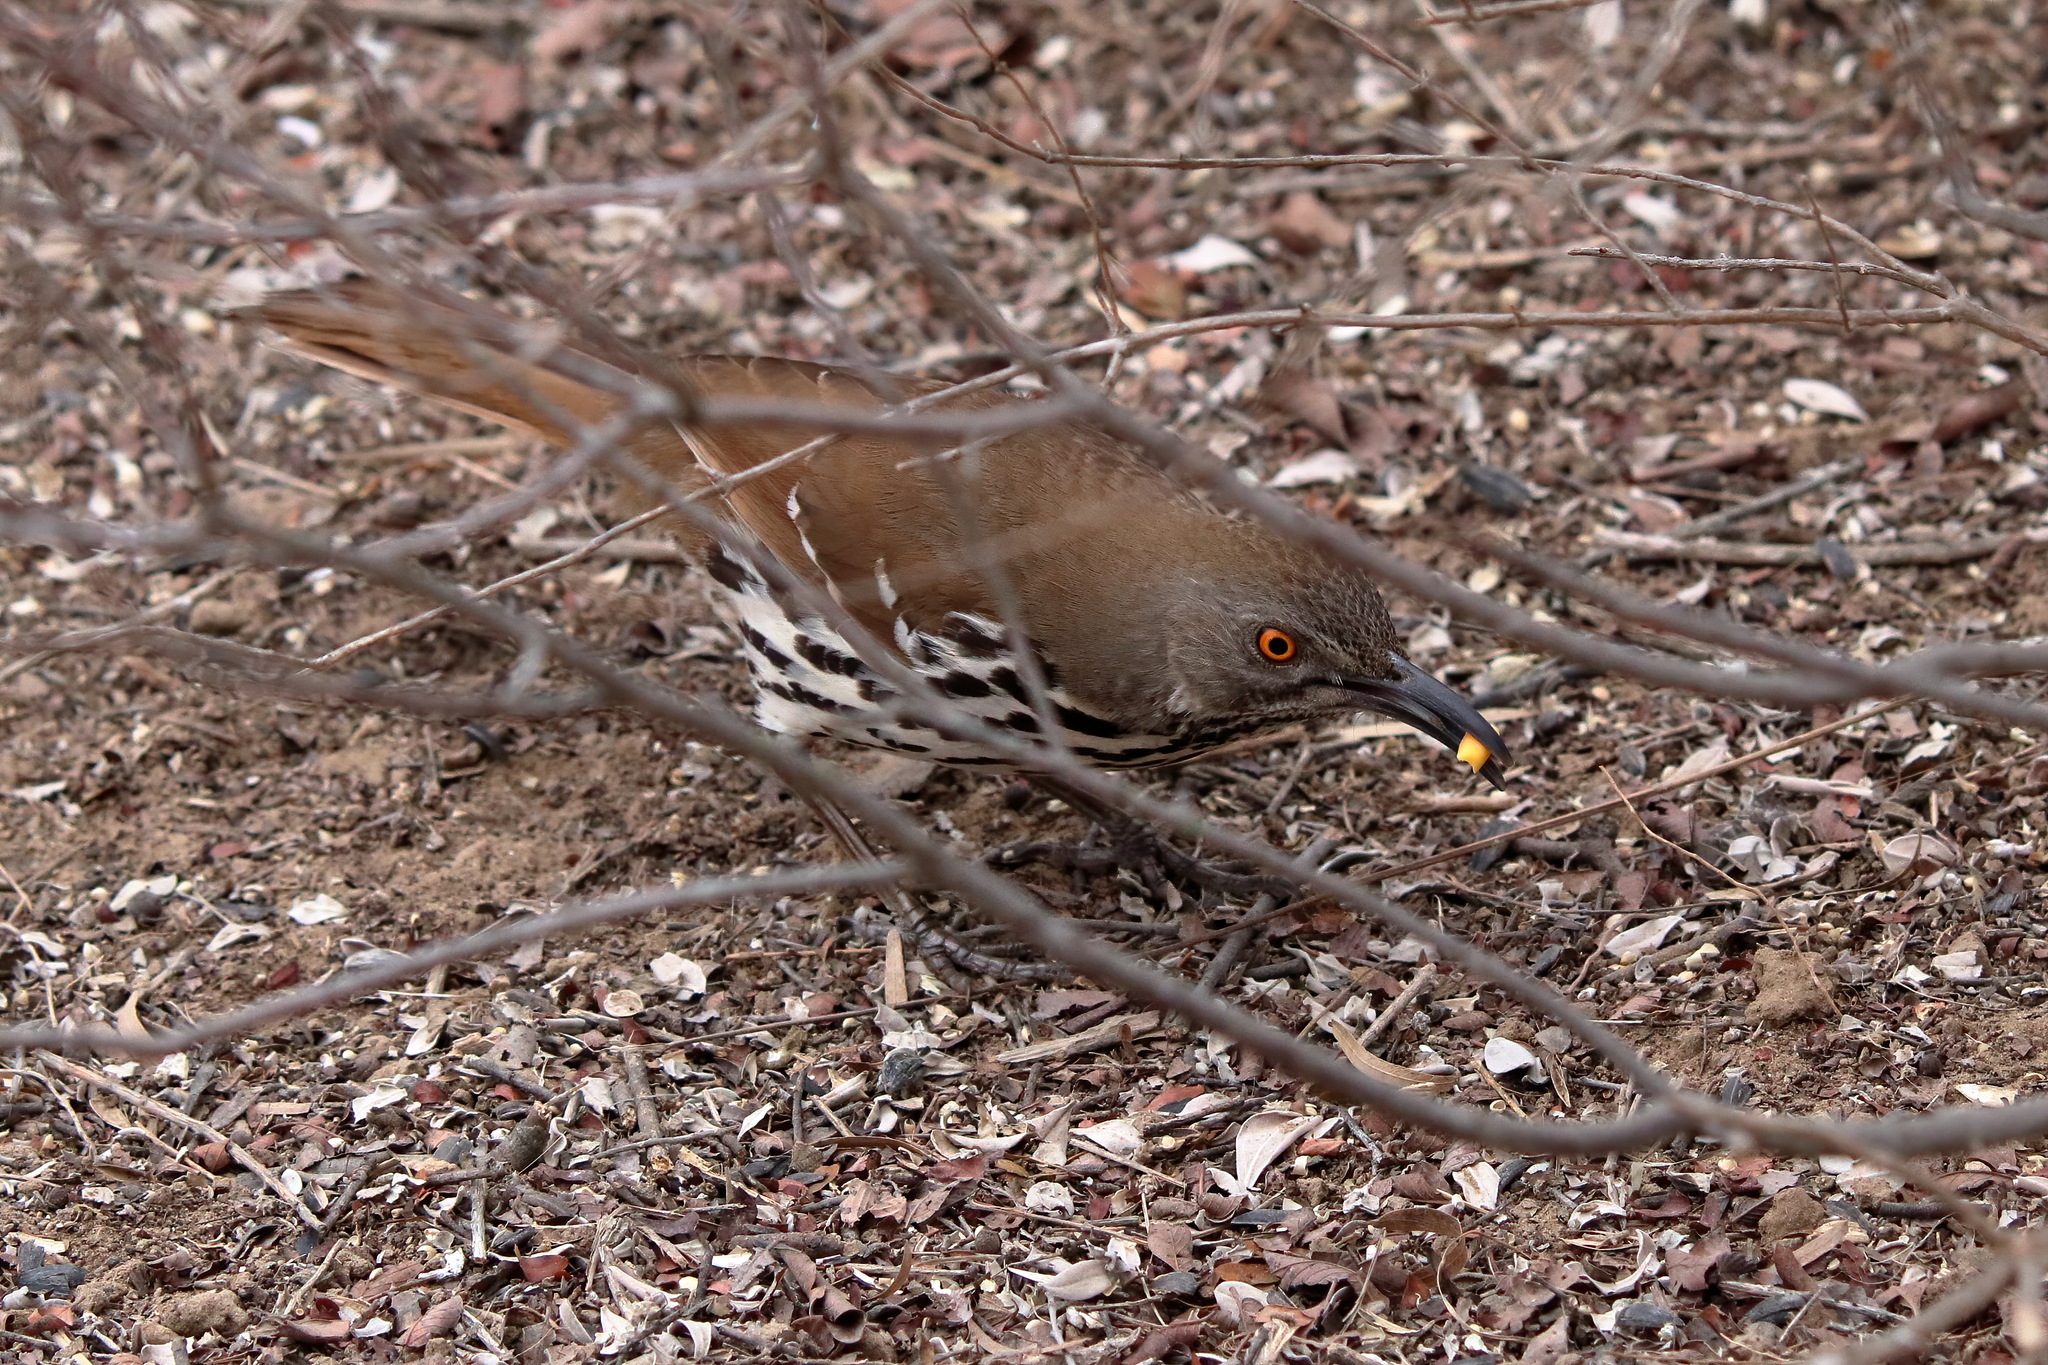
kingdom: Animalia
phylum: Chordata
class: Aves
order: Passeriformes
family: Mimidae
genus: Toxostoma
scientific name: Toxostoma longirostre
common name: Long-billed thrasher
